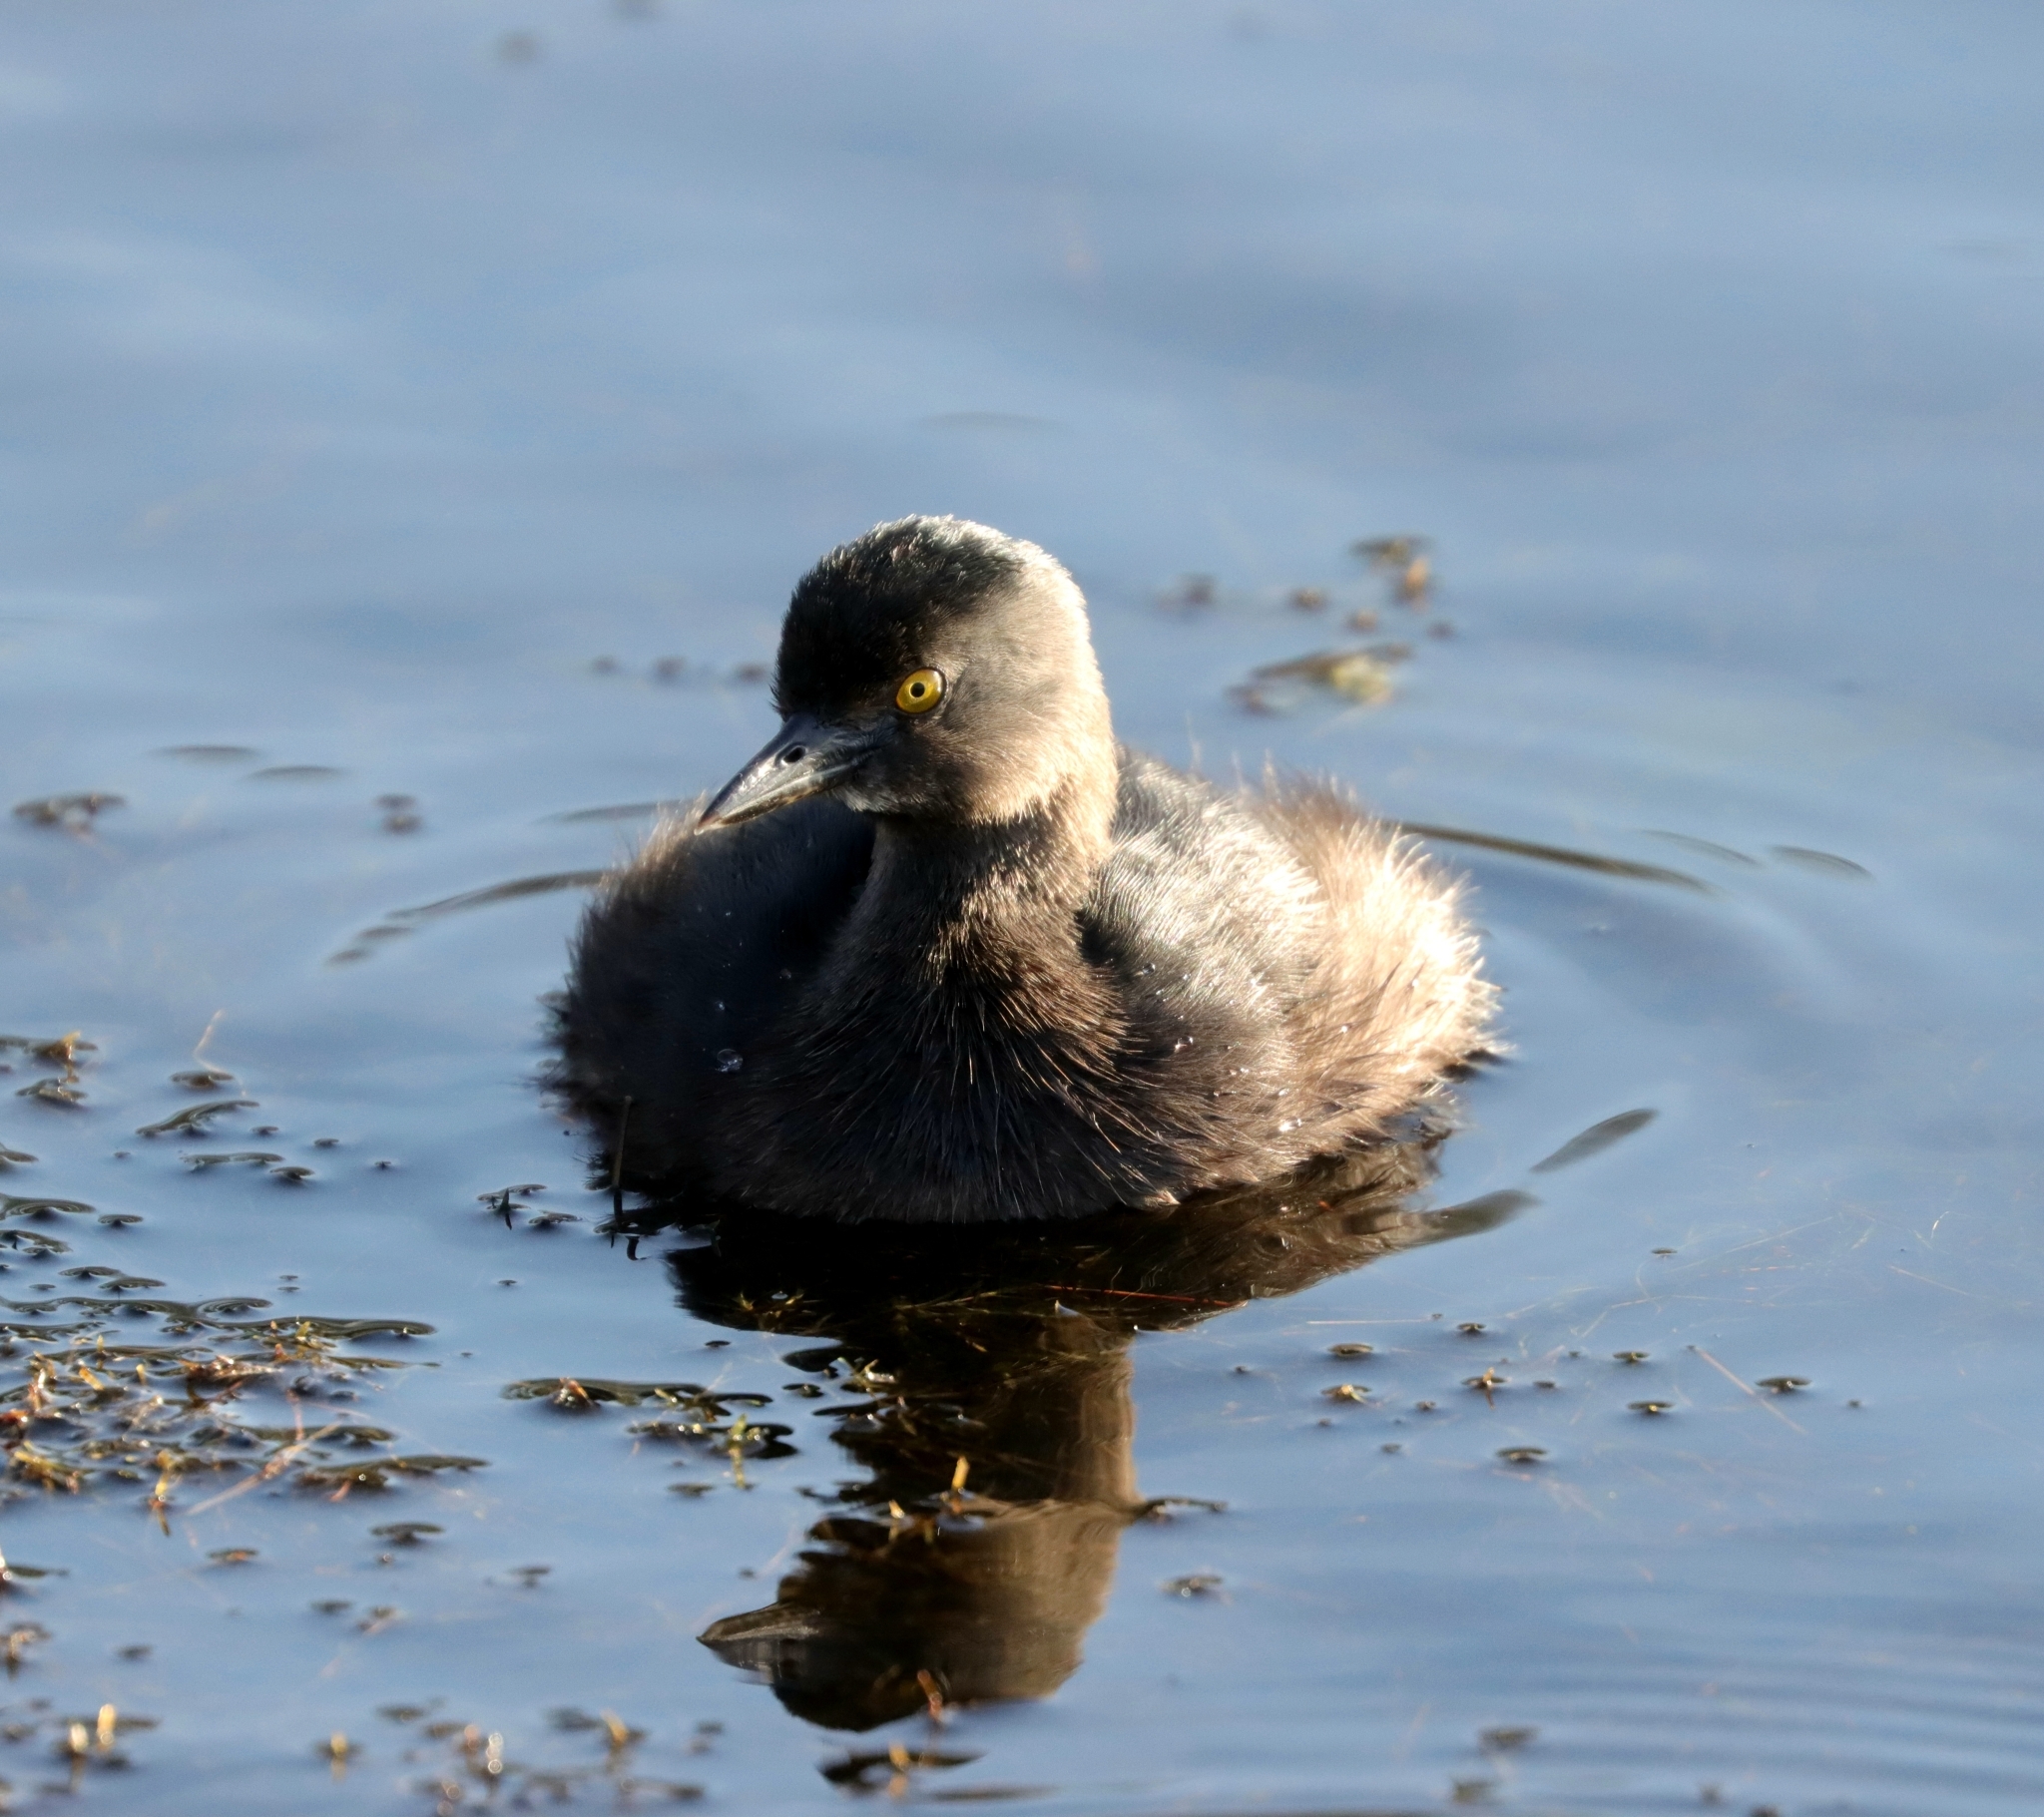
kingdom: Animalia
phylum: Chordata
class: Aves
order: Podicipediformes
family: Podicipedidae
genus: Tachybaptus
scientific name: Tachybaptus dominicus
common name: Least grebe
